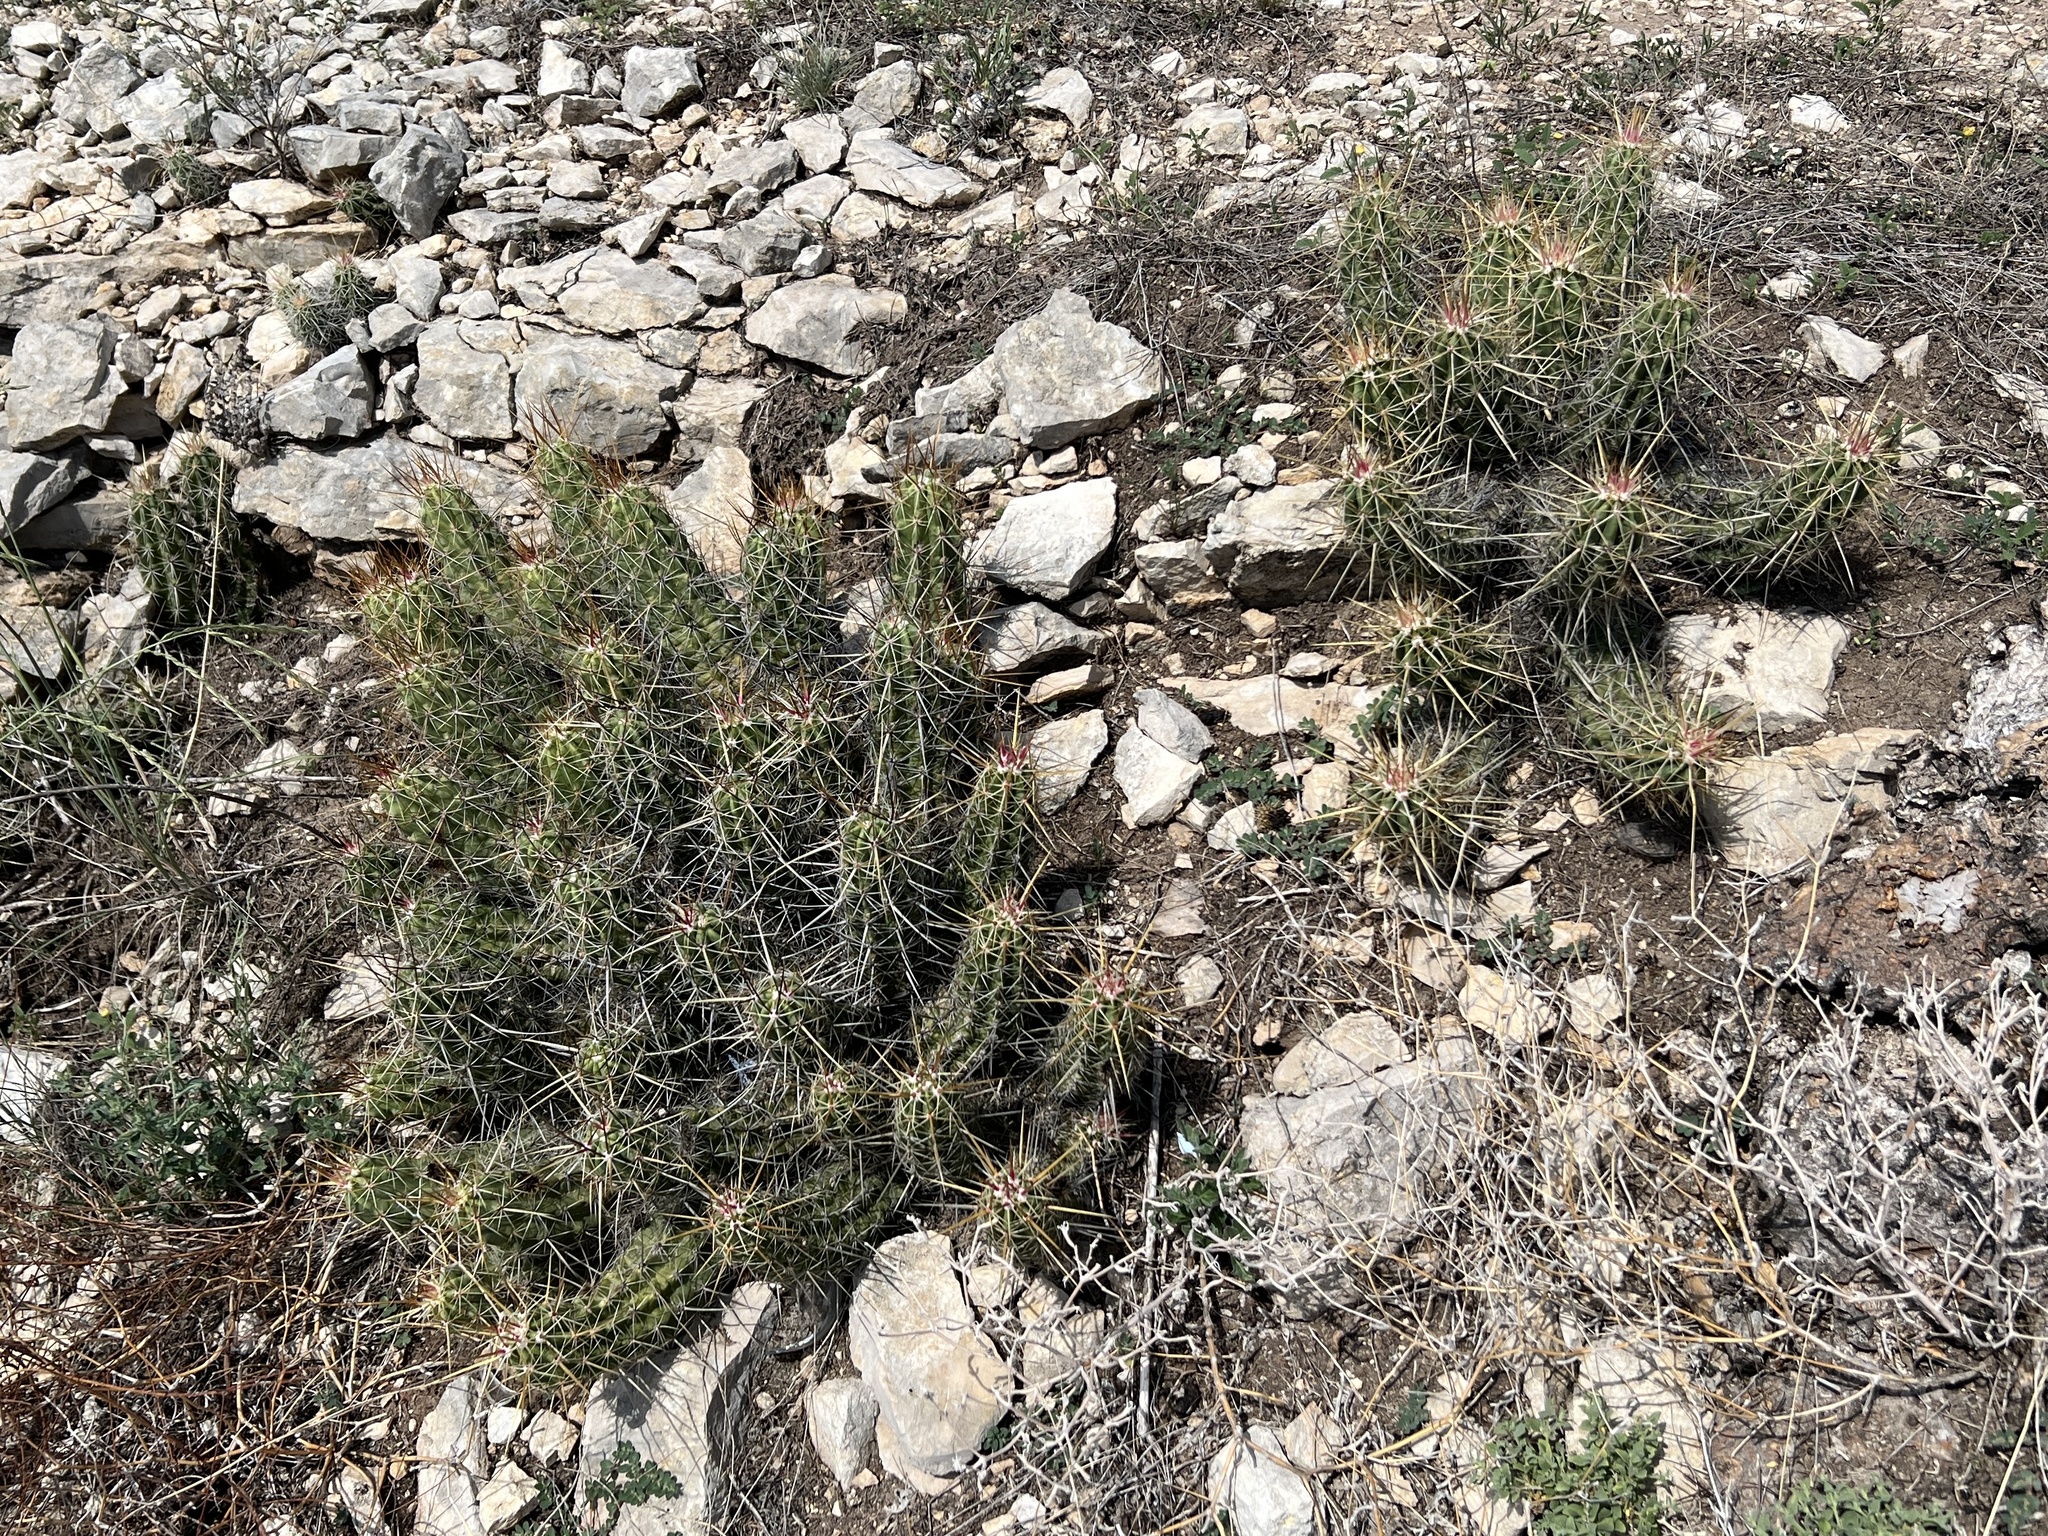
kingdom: Plantae
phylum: Tracheophyta
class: Magnoliopsida
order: Caryophyllales
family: Cactaceae
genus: Echinocereus
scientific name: Echinocereus enneacanthus
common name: Pitaya
